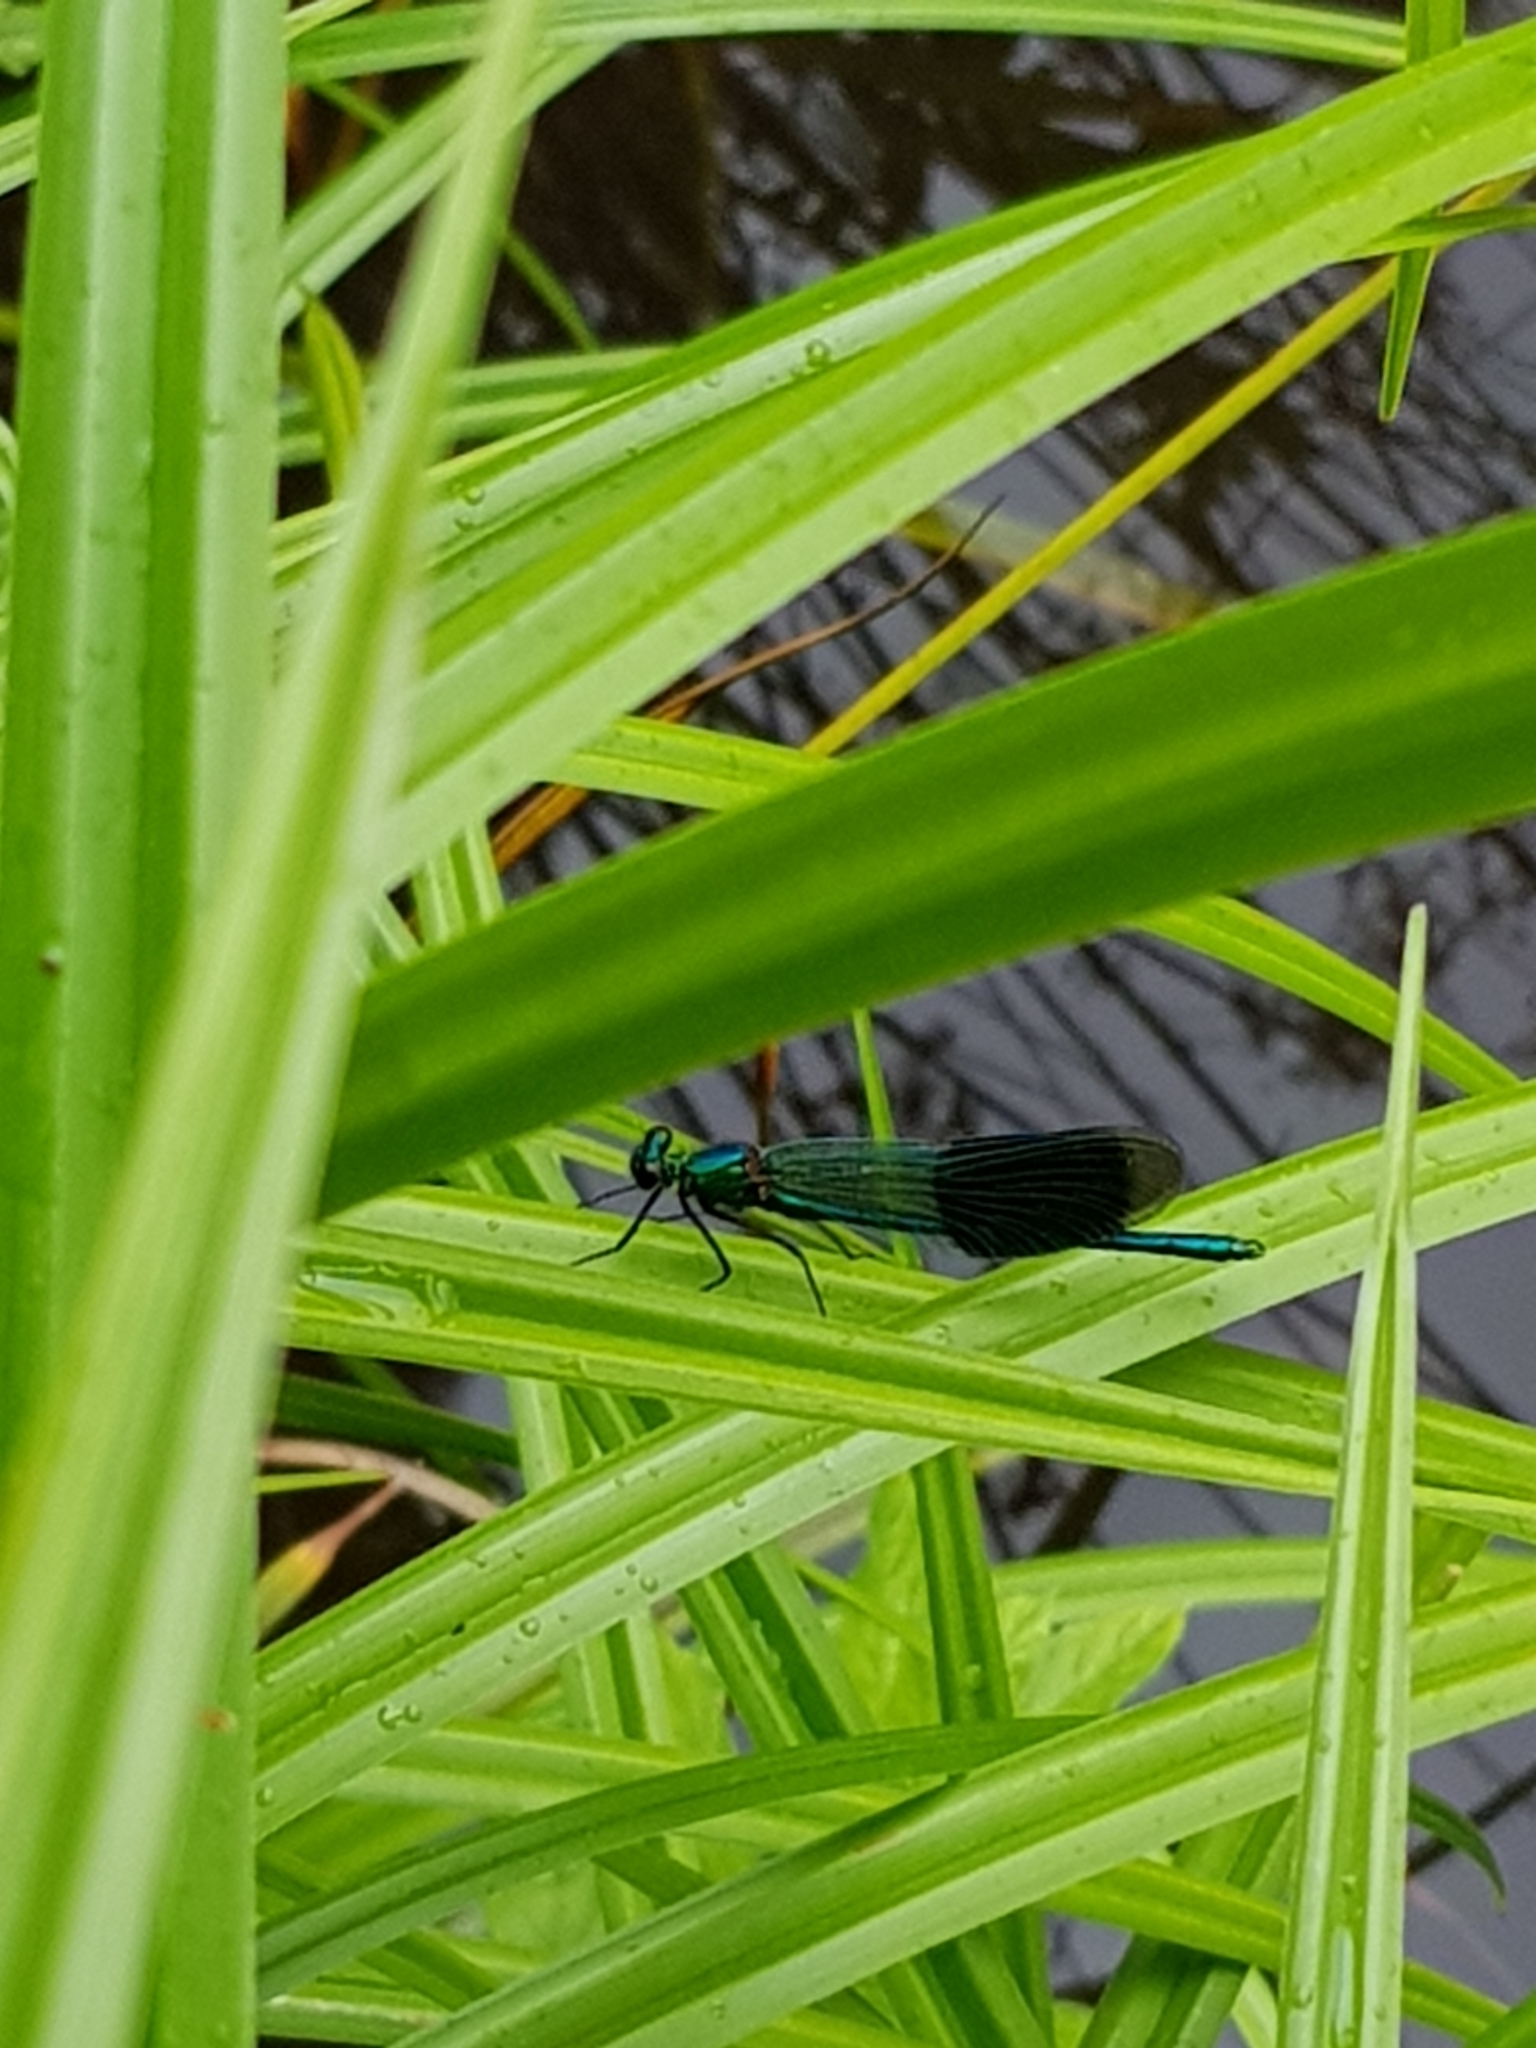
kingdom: Animalia
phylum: Arthropoda
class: Insecta
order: Odonata
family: Calopterygidae
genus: Calopteryx
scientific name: Calopteryx splendens
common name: Banded demoiselle
